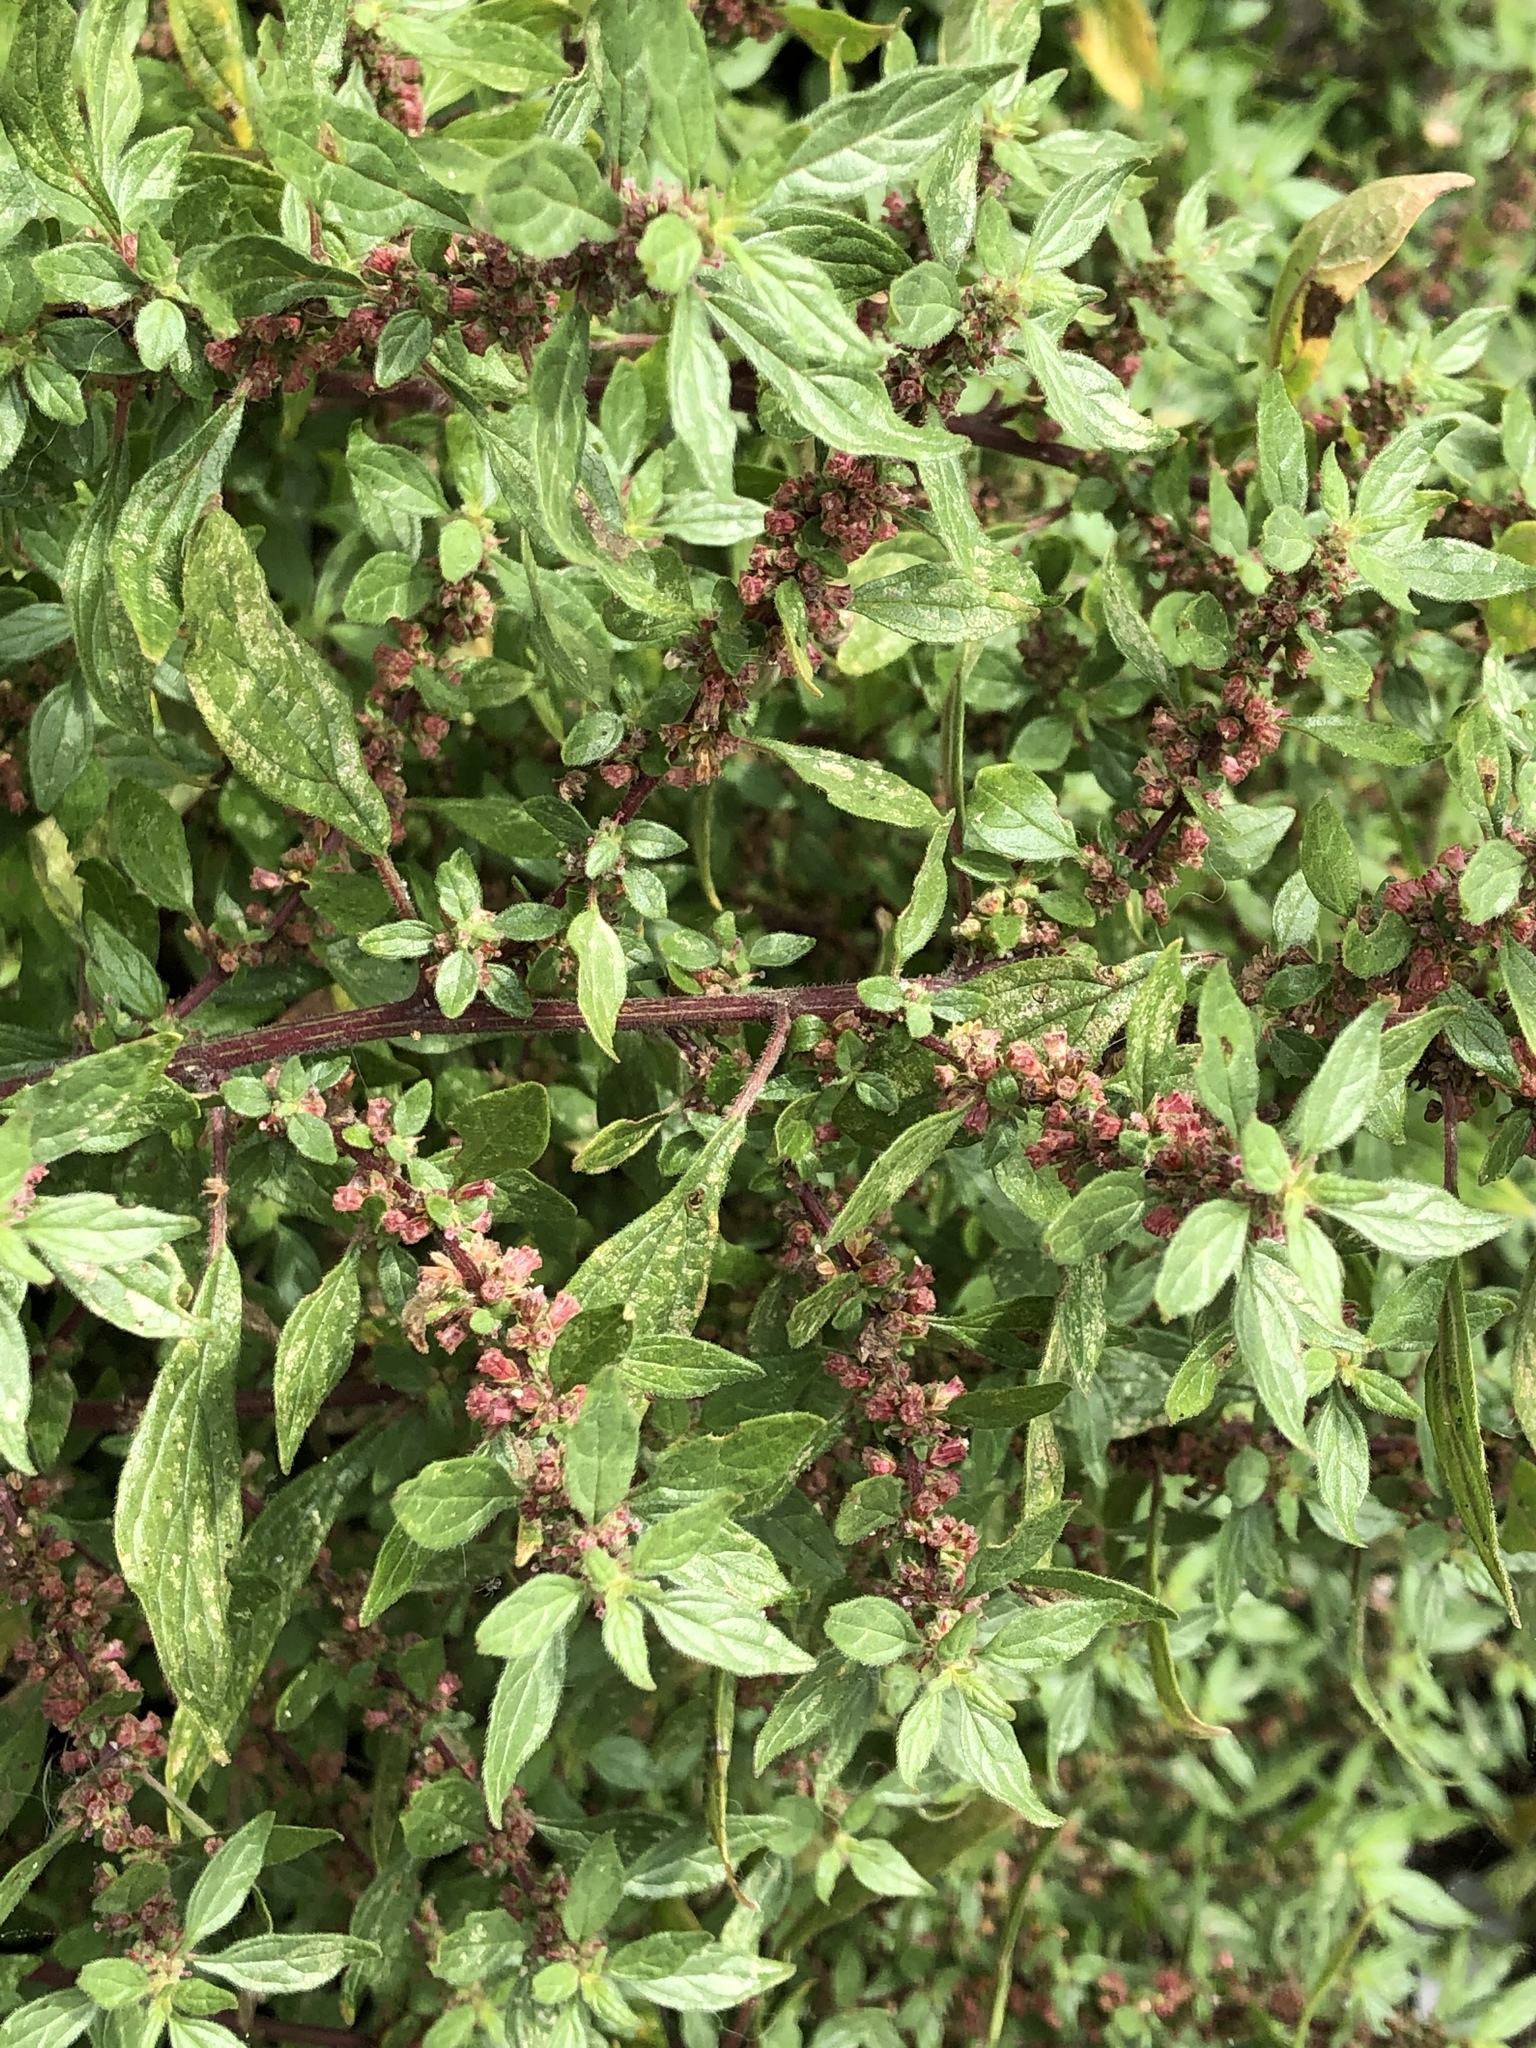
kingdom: Plantae
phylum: Tracheophyta
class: Magnoliopsida
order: Rosales
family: Urticaceae
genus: Parietaria
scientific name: Parietaria judaica
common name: Pellitory-of-the-wall
